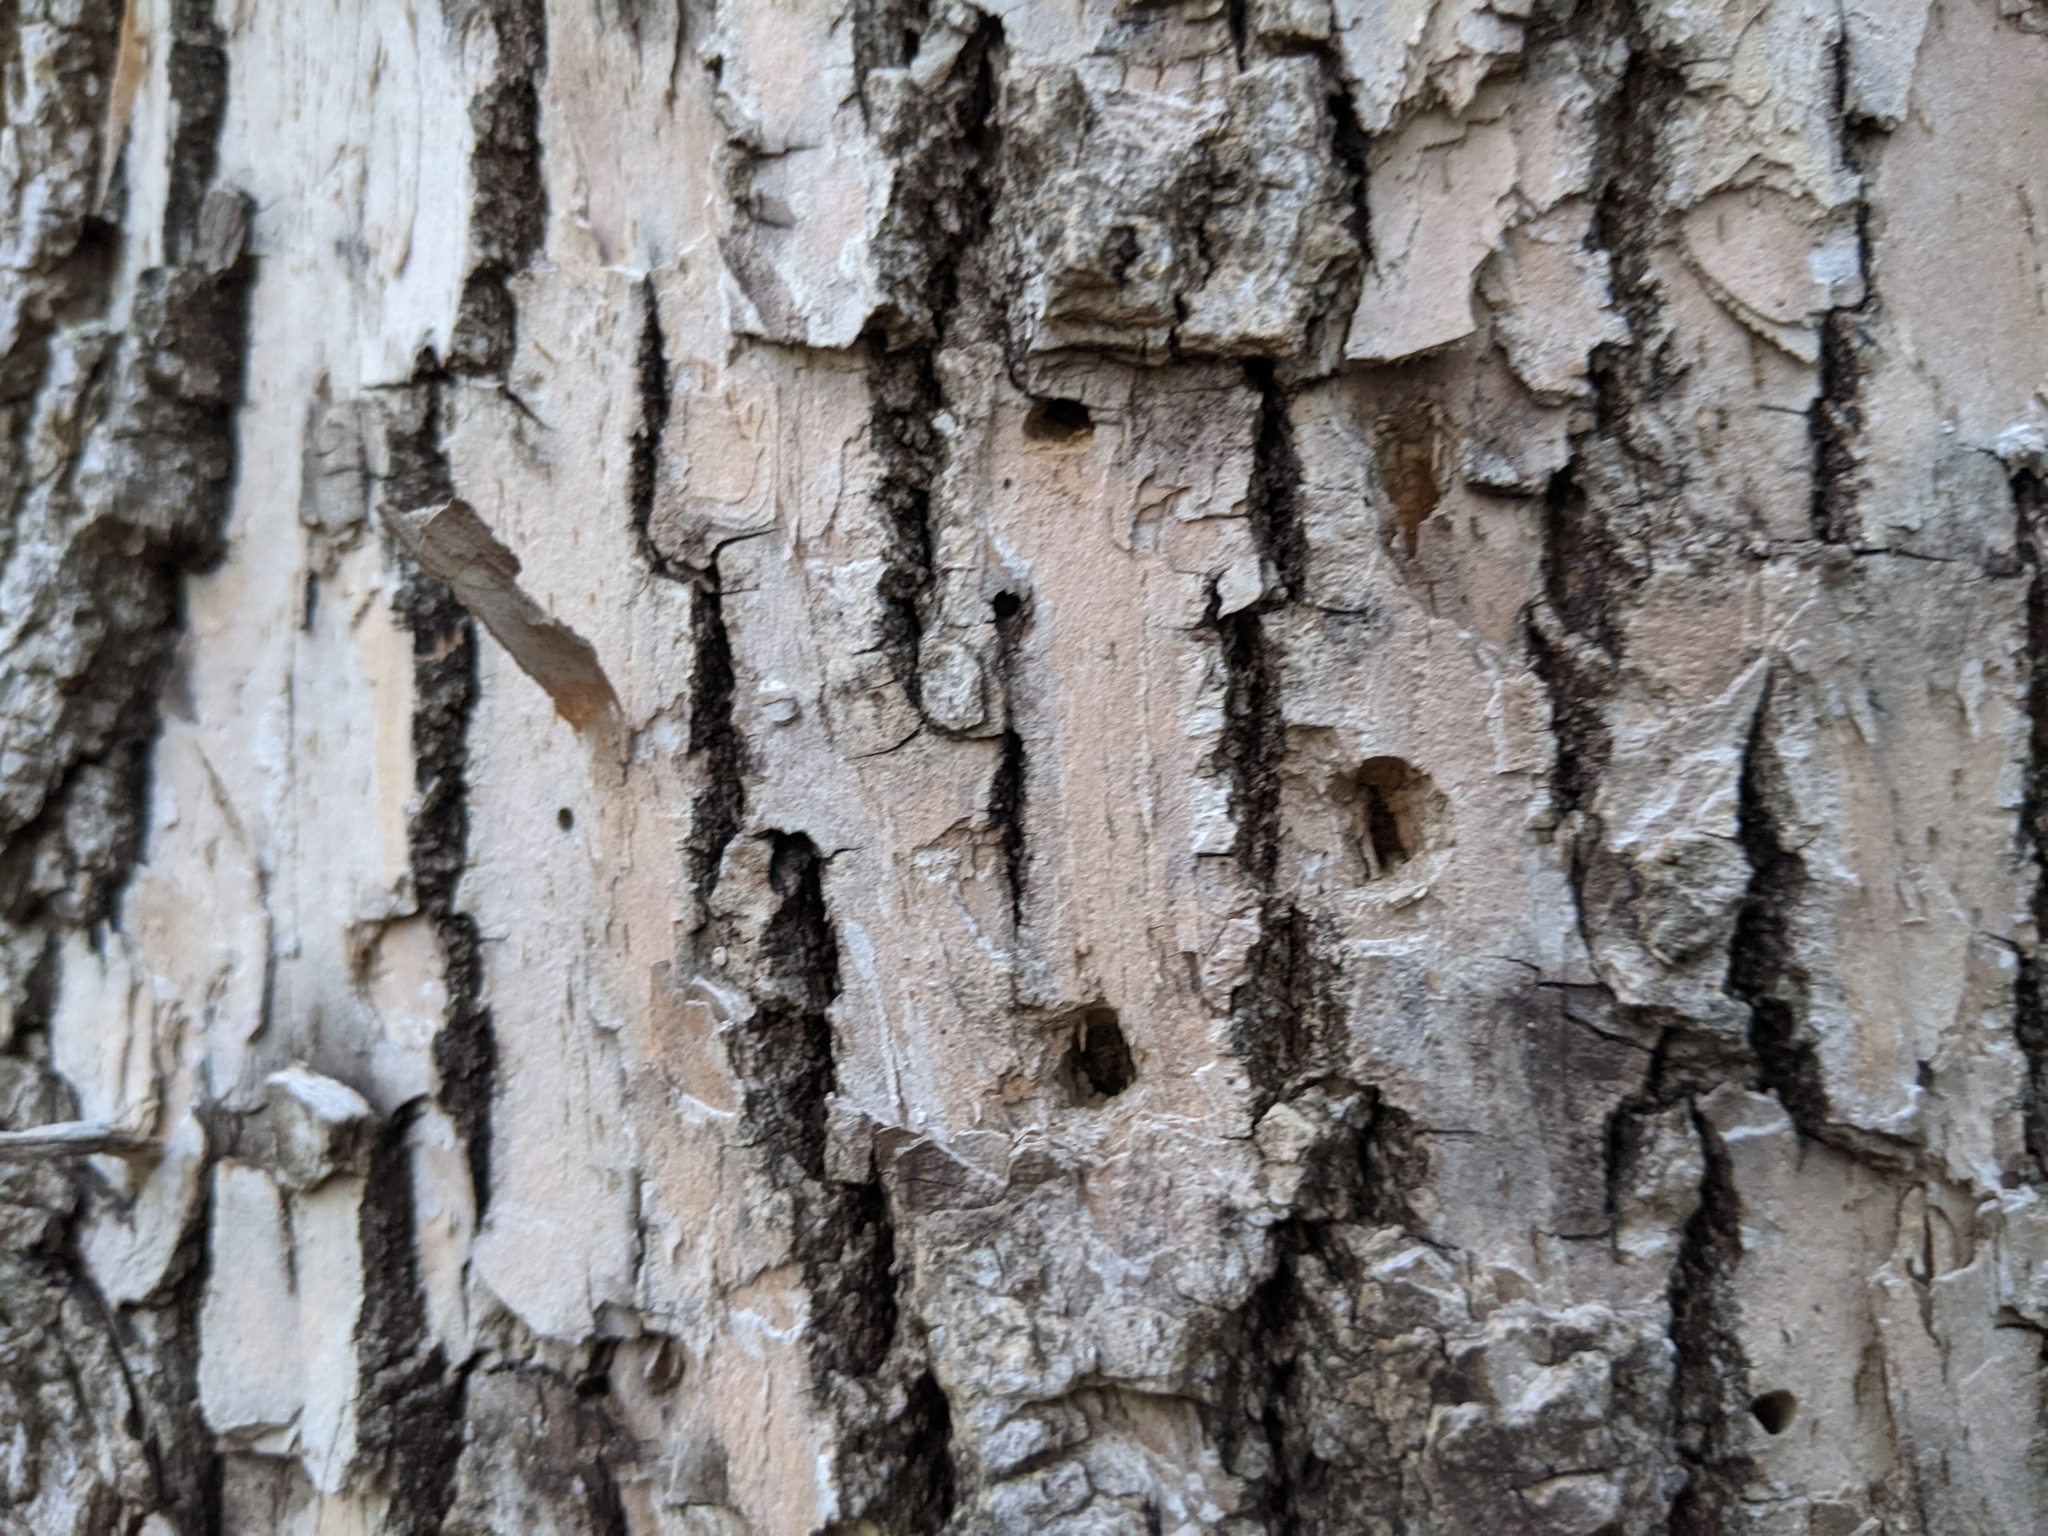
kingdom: Animalia
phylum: Arthropoda
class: Insecta
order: Coleoptera
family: Buprestidae
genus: Agrilus
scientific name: Agrilus planipennis
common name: Emerald ash borer
